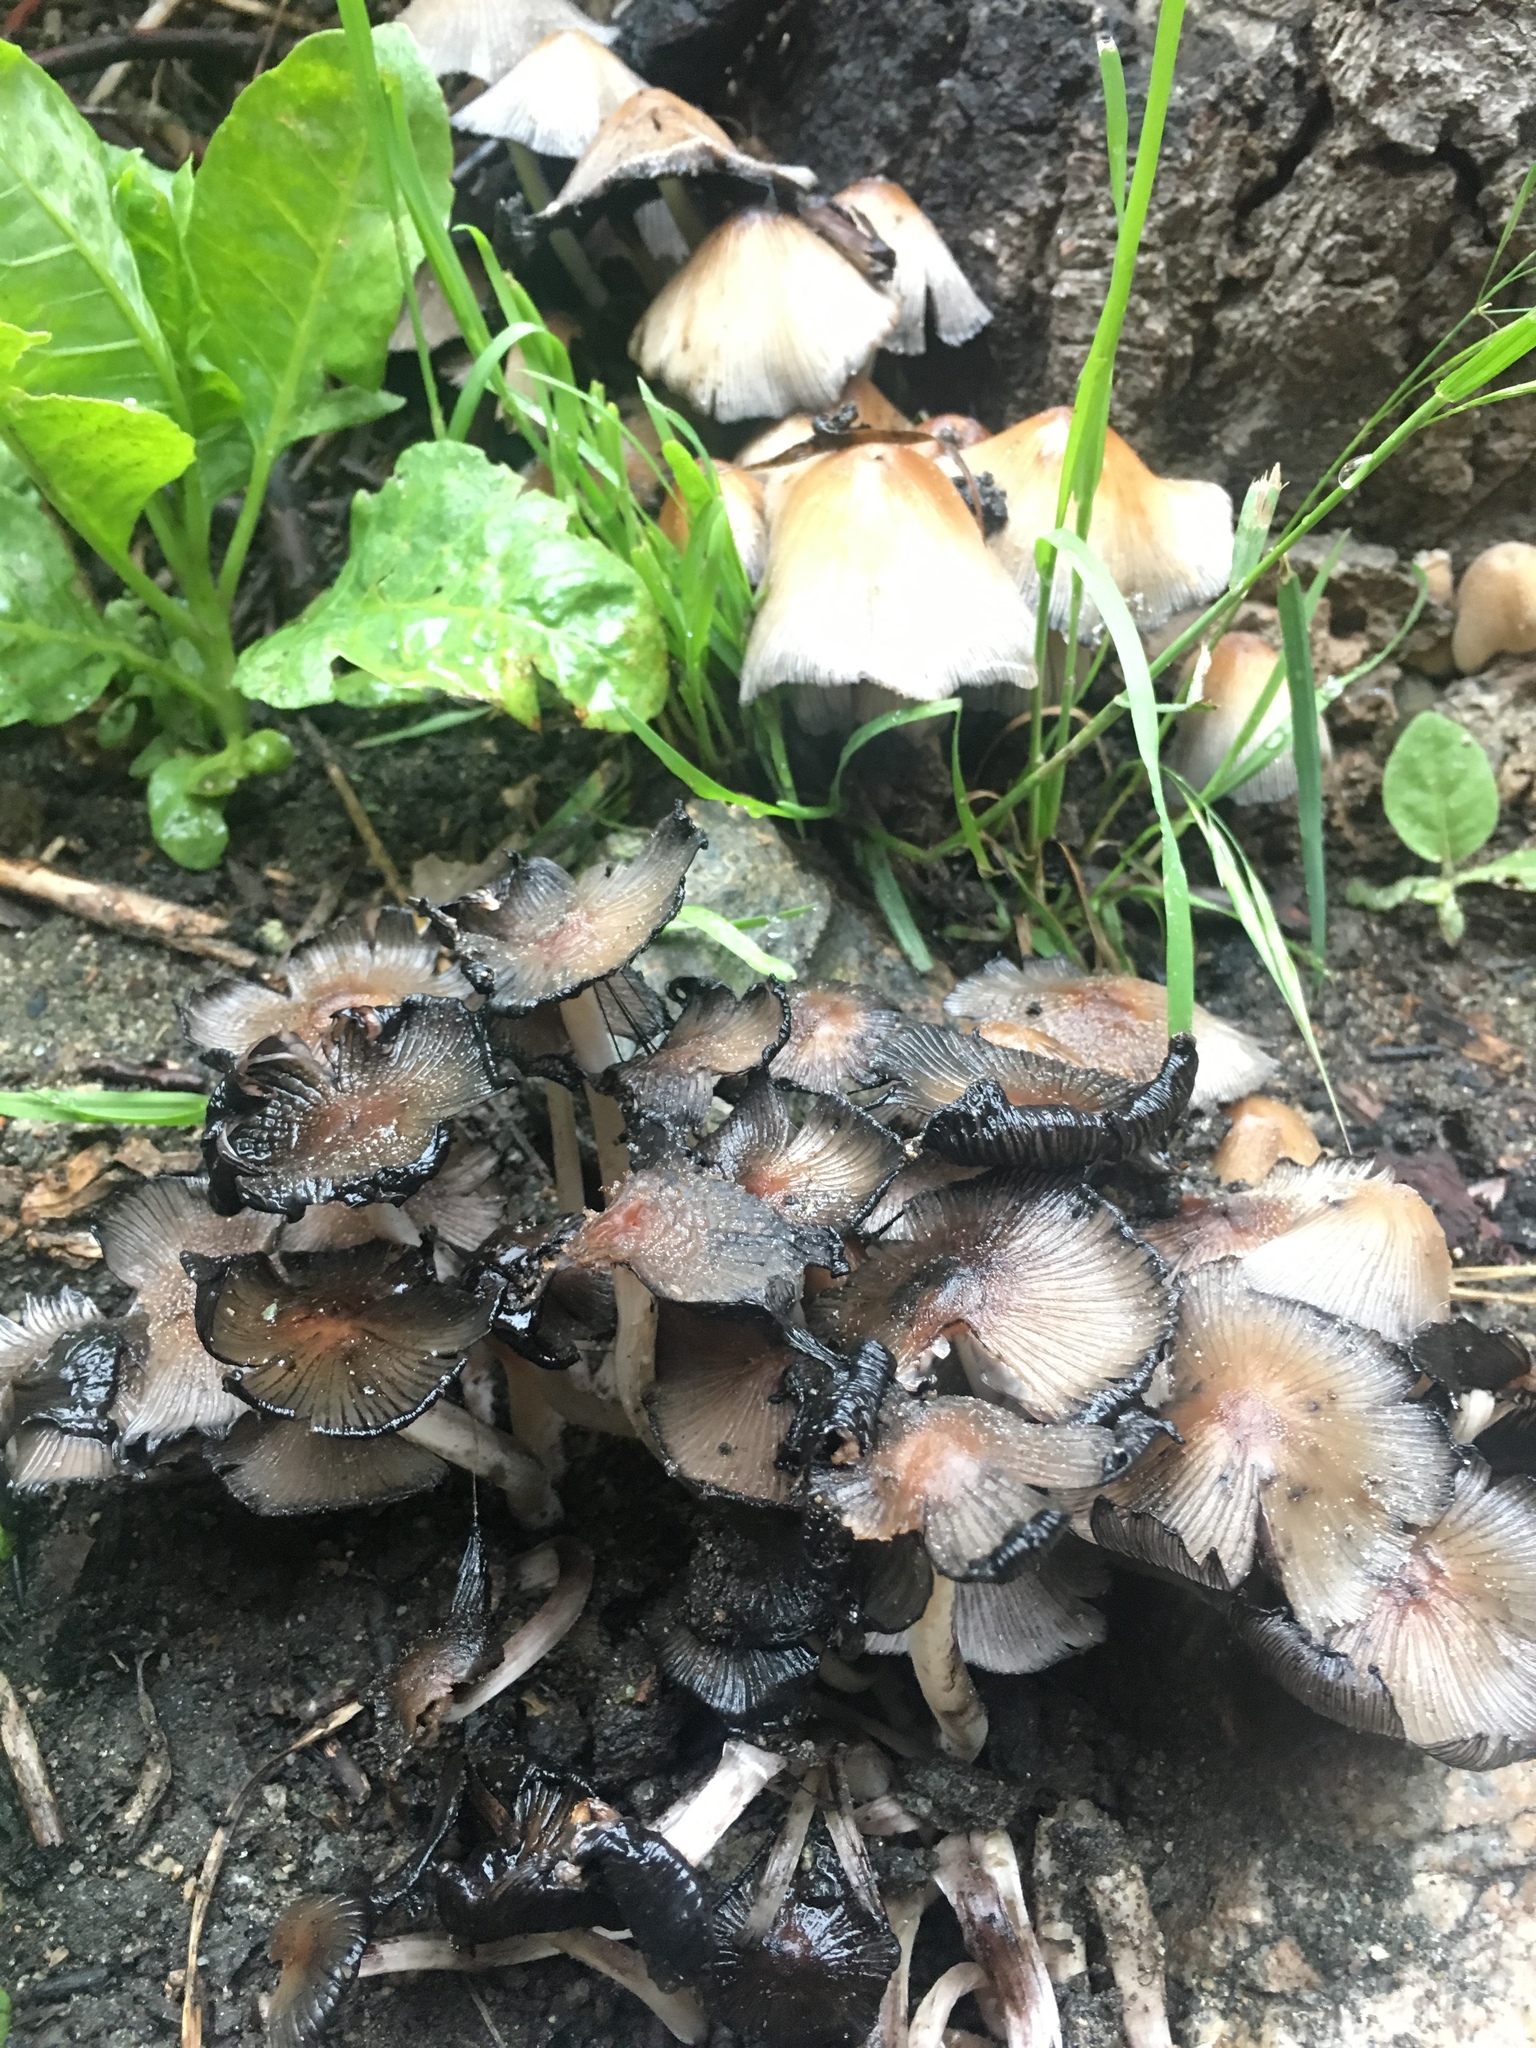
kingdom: Fungi
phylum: Basidiomycota
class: Agaricomycetes
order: Agaricales
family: Psathyrellaceae
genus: Coprinellus
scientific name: Coprinellus
